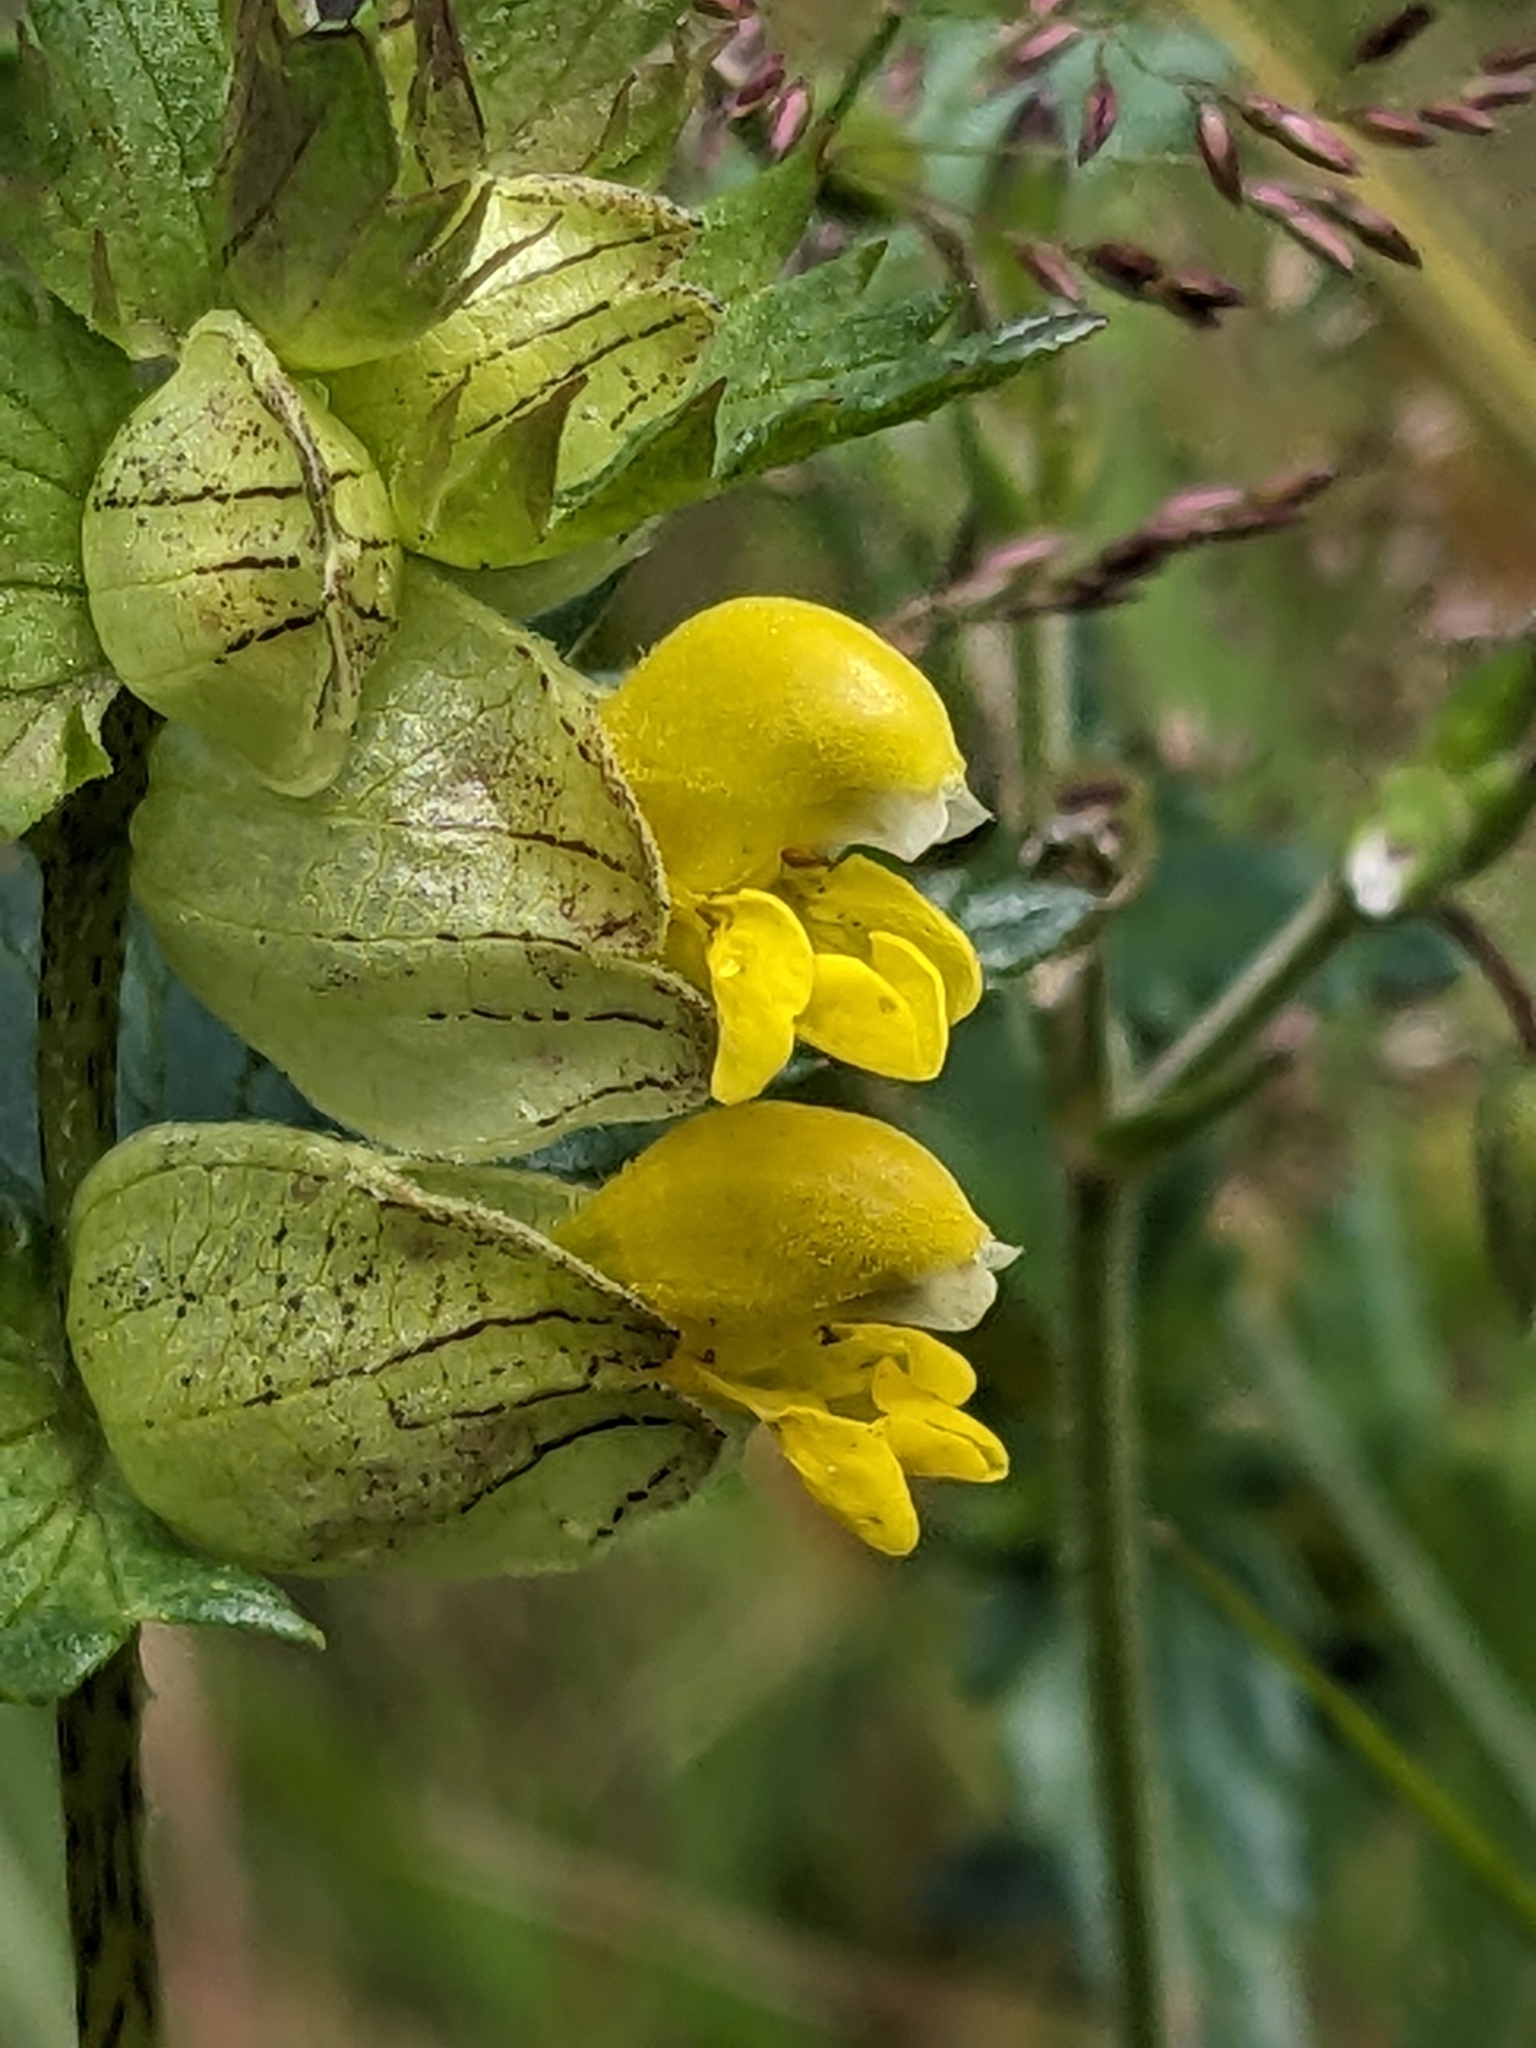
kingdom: Plantae
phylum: Tracheophyta
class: Magnoliopsida
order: Lamiales
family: Orobanchaceae
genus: Rhinanthus
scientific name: Rhinanthus minor
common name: Yellow-rattle
